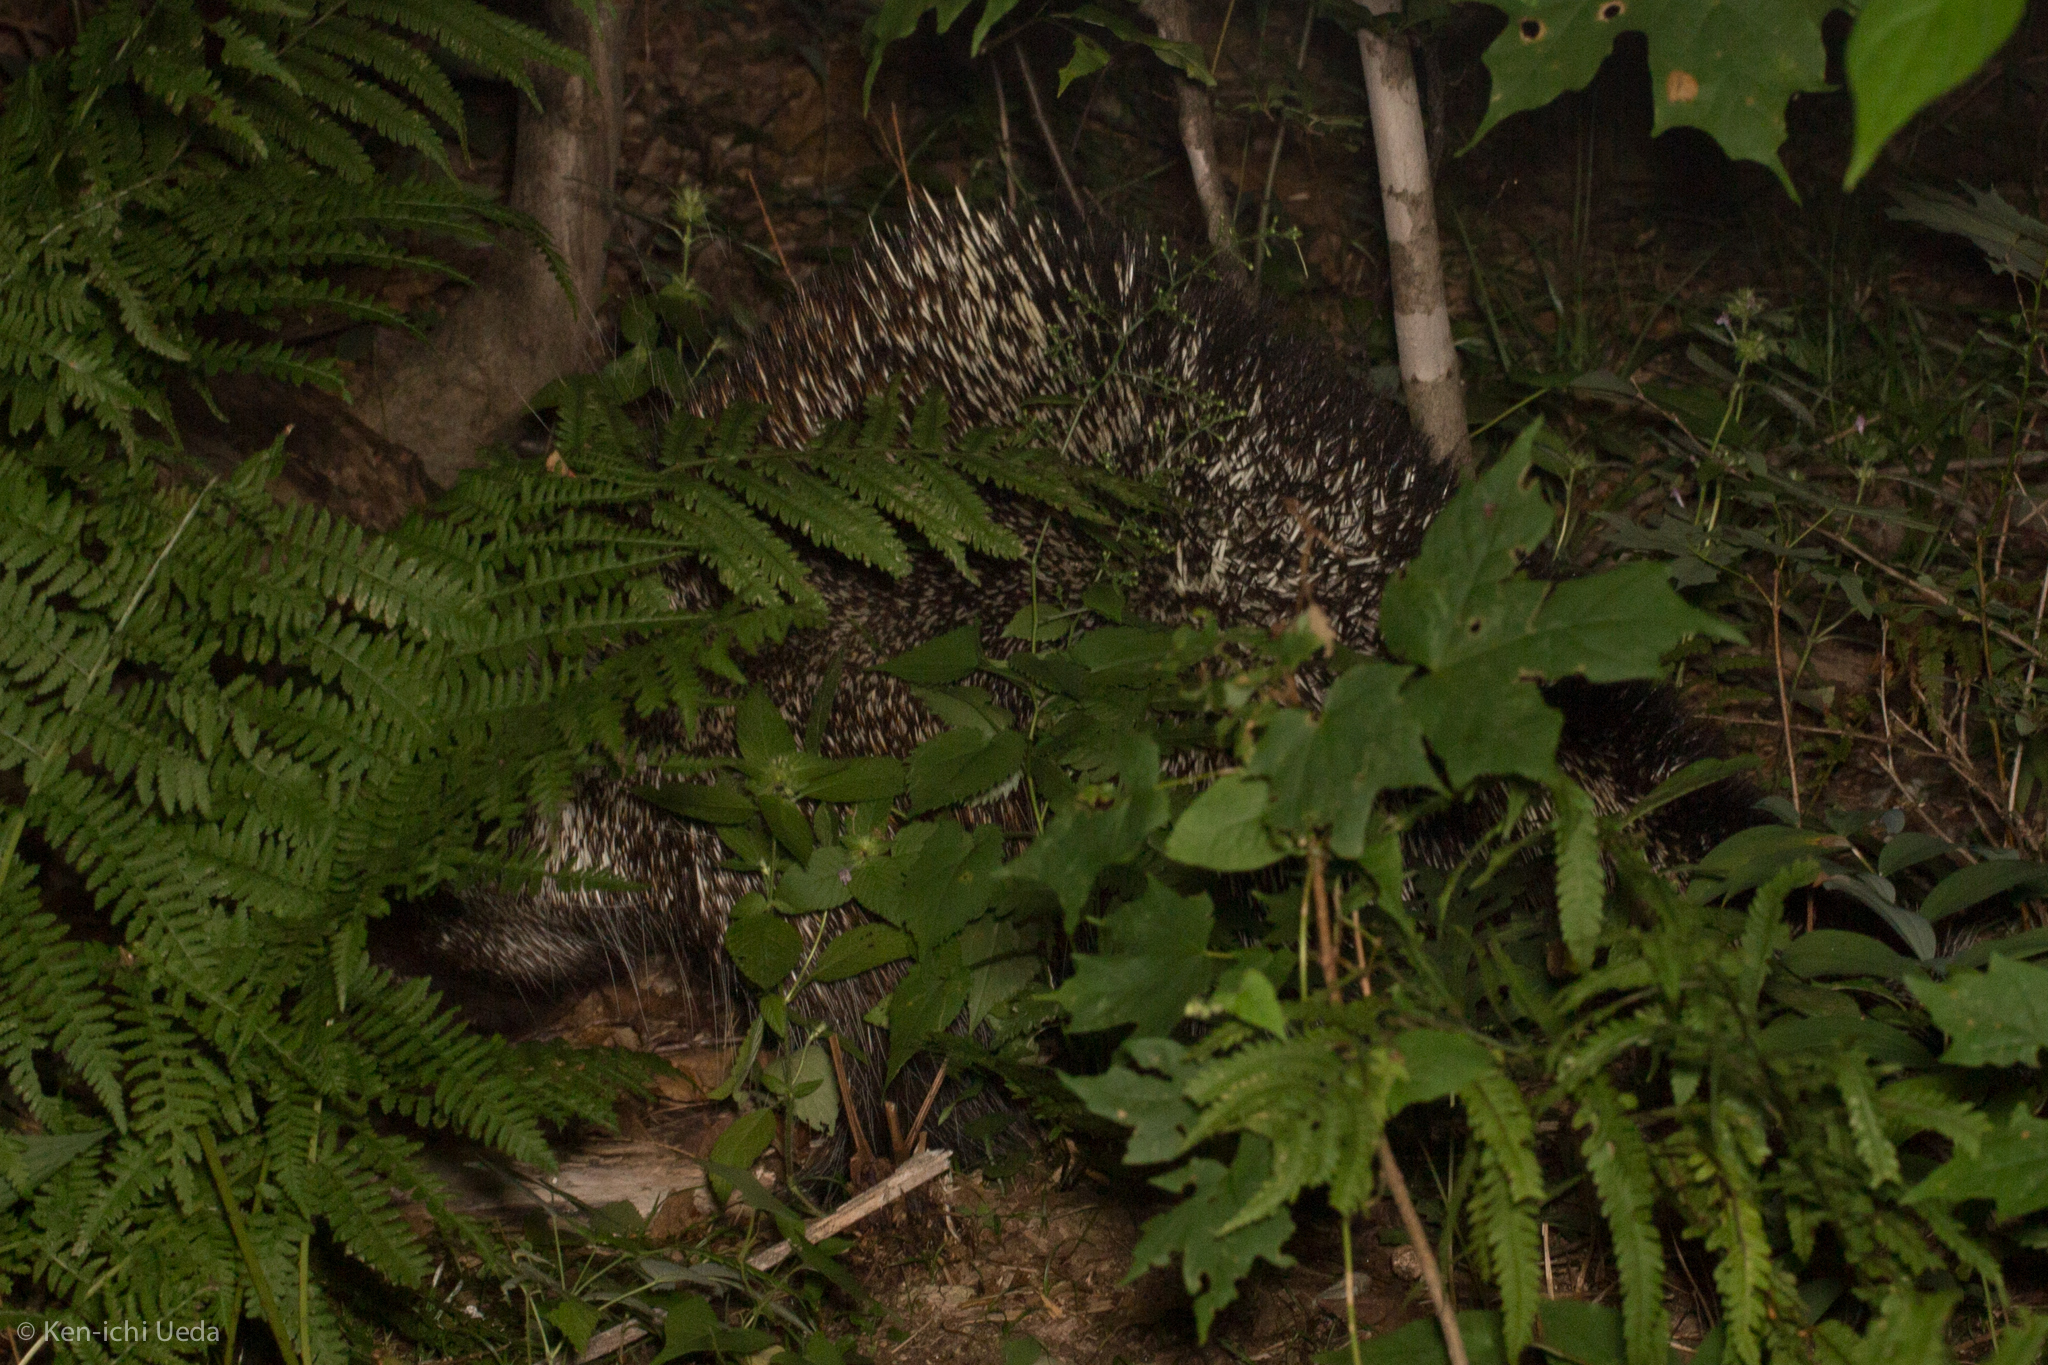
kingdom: Animalia
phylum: Chordata
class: Mammalia
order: Rodentia
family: Erethizontidae
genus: Erethizon
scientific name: Erethizon dorsatus
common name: North american porcupine
